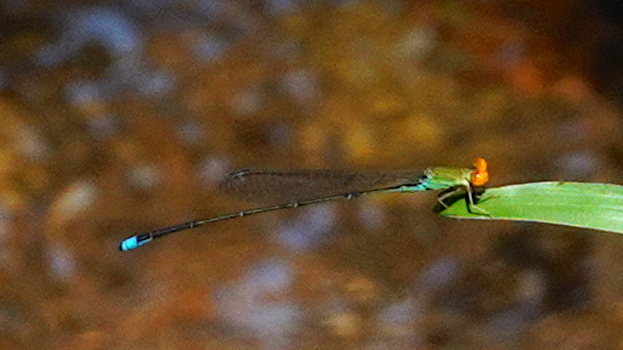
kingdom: Animalia
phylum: Arthropoda
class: Insecta
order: Odonata
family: Coenagrionidae
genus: Pseudagrion
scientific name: Pseudagrion rubriceps
